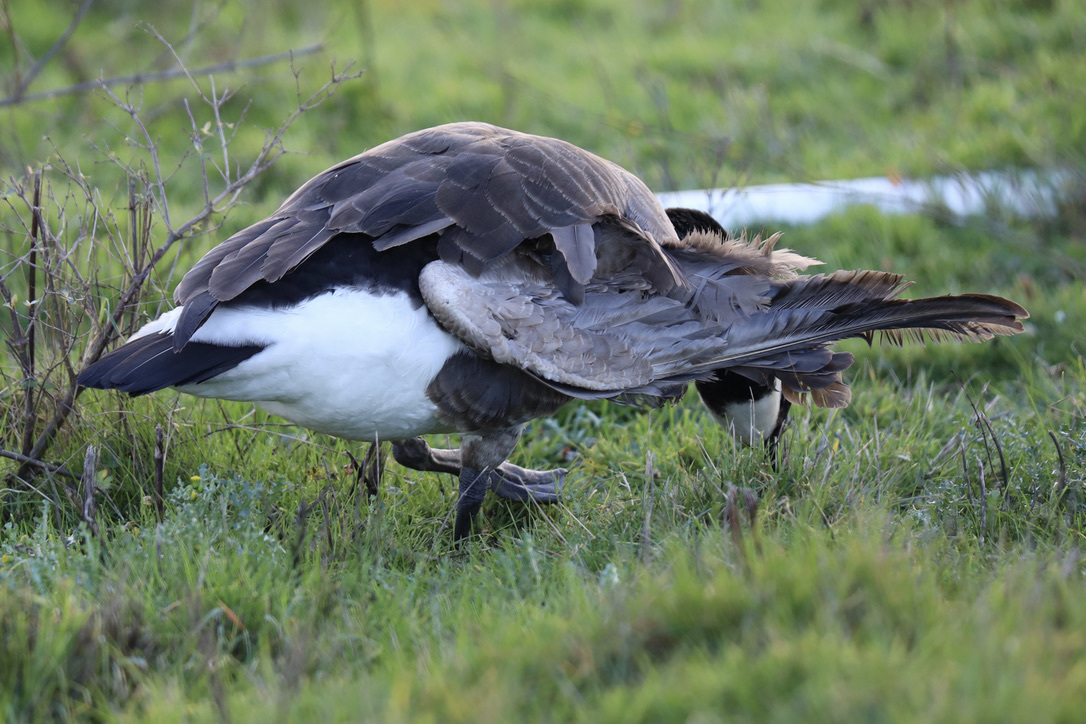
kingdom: Animalia
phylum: Chordata
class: Aves
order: Anseriformes
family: Anatidae
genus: Branta
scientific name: Branta canadensis
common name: Canada goose
